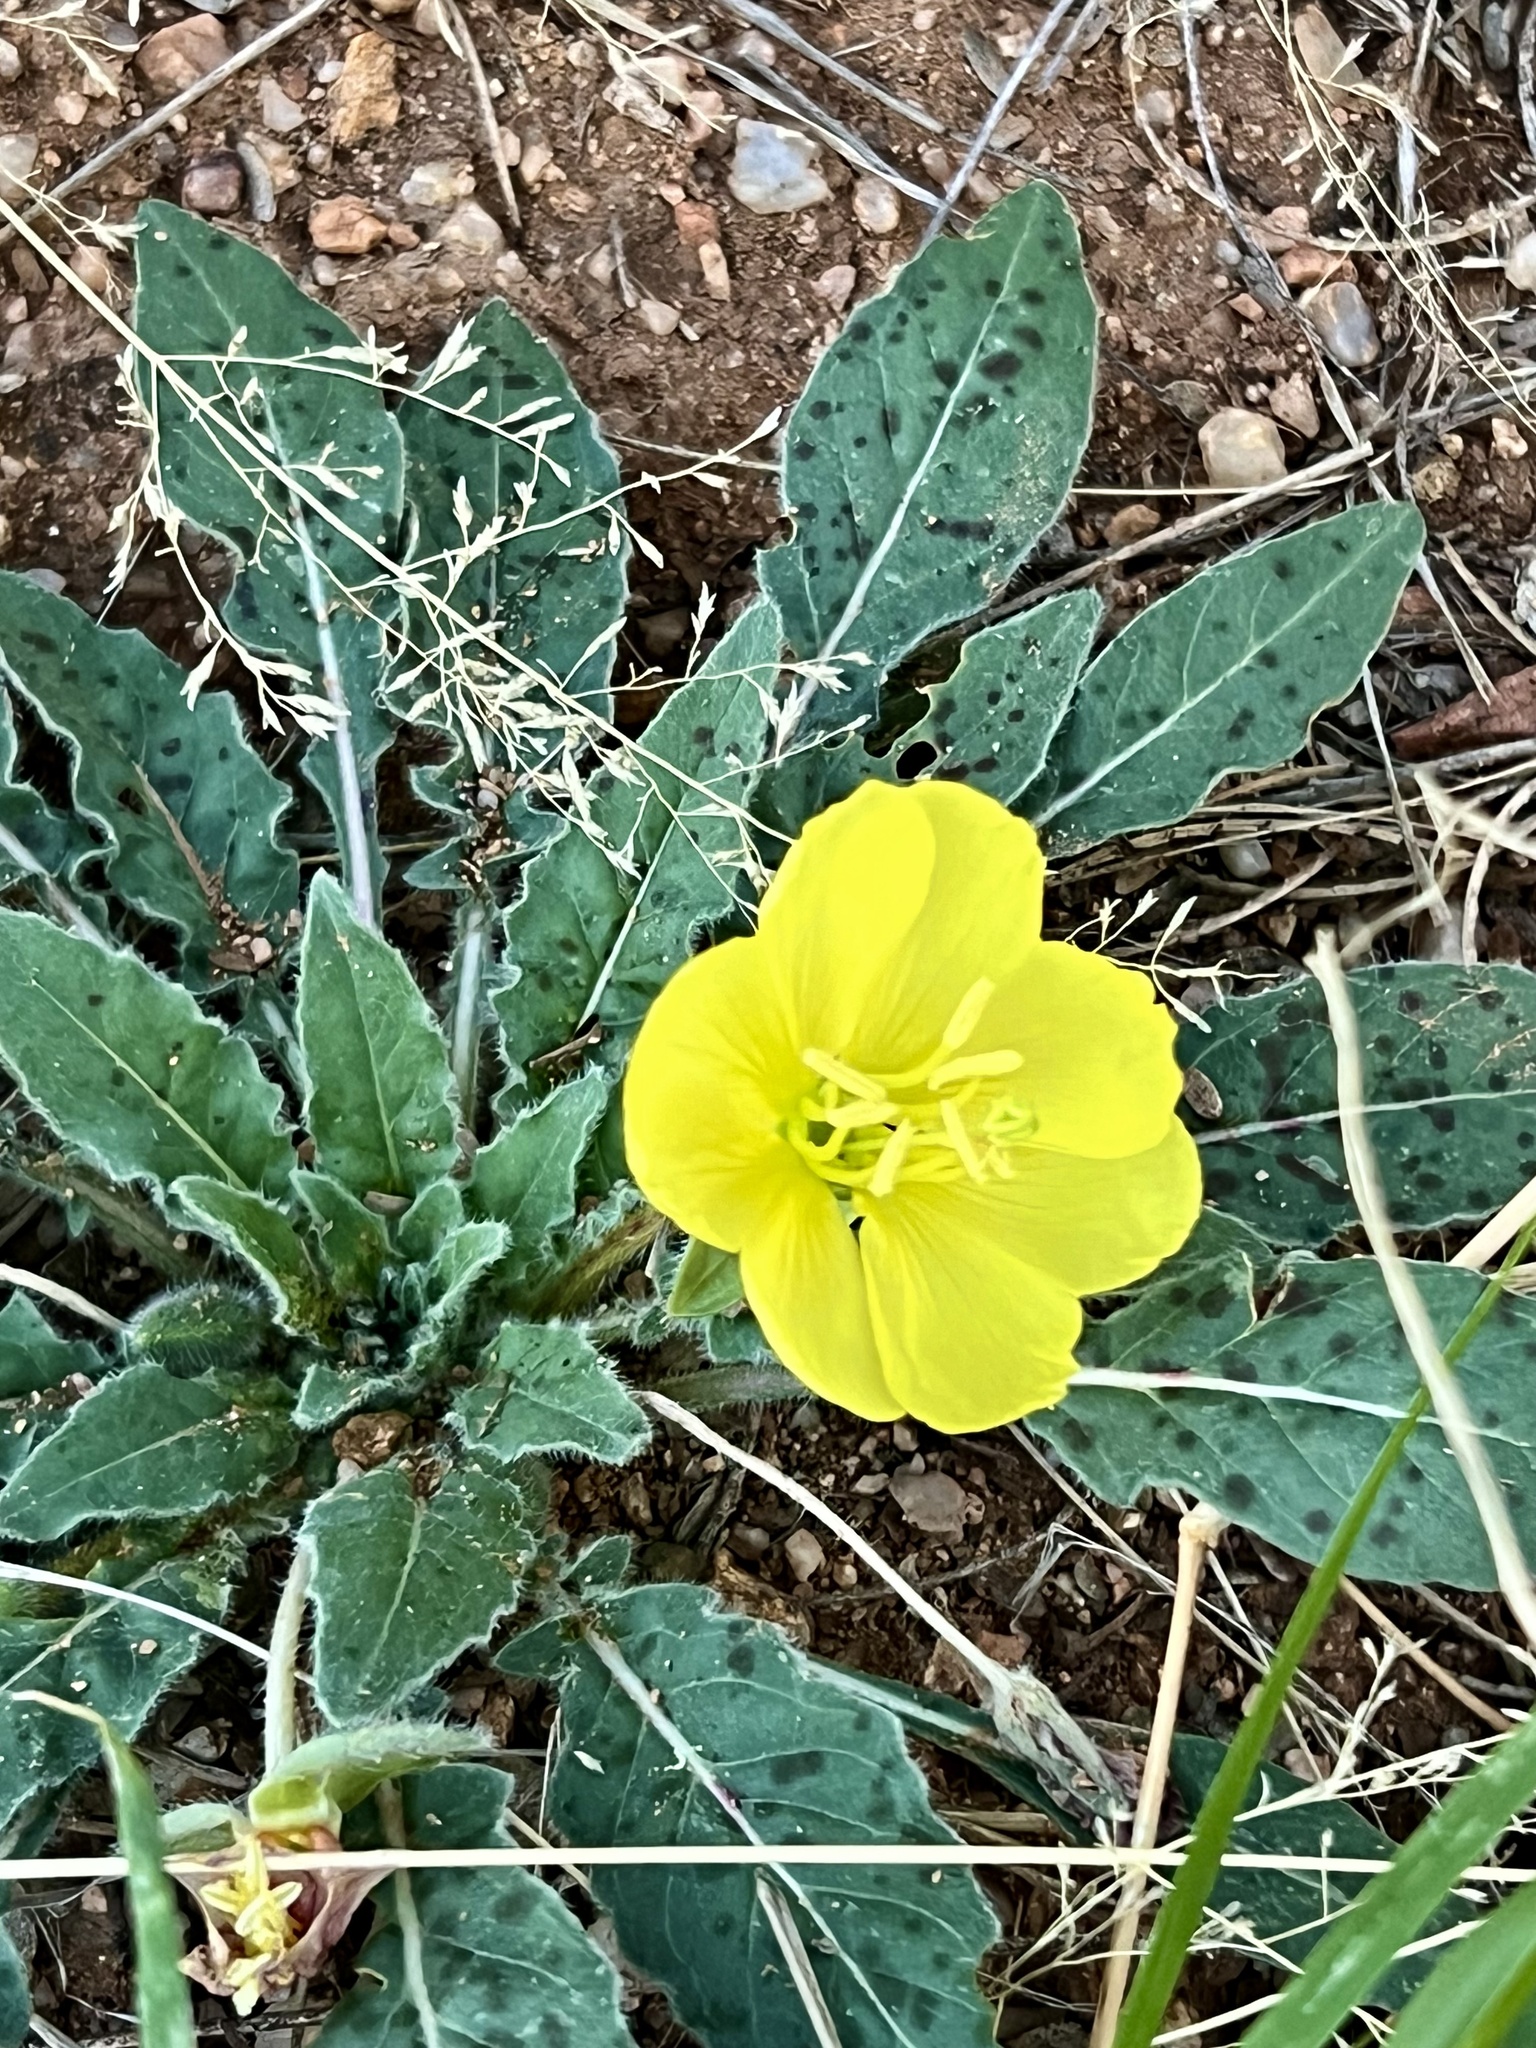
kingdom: Plantae
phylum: Tracheophyta
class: Magnoliopsida
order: Myrtales
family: Onagraceae
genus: Oenothera
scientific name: Oenothera primiveris
